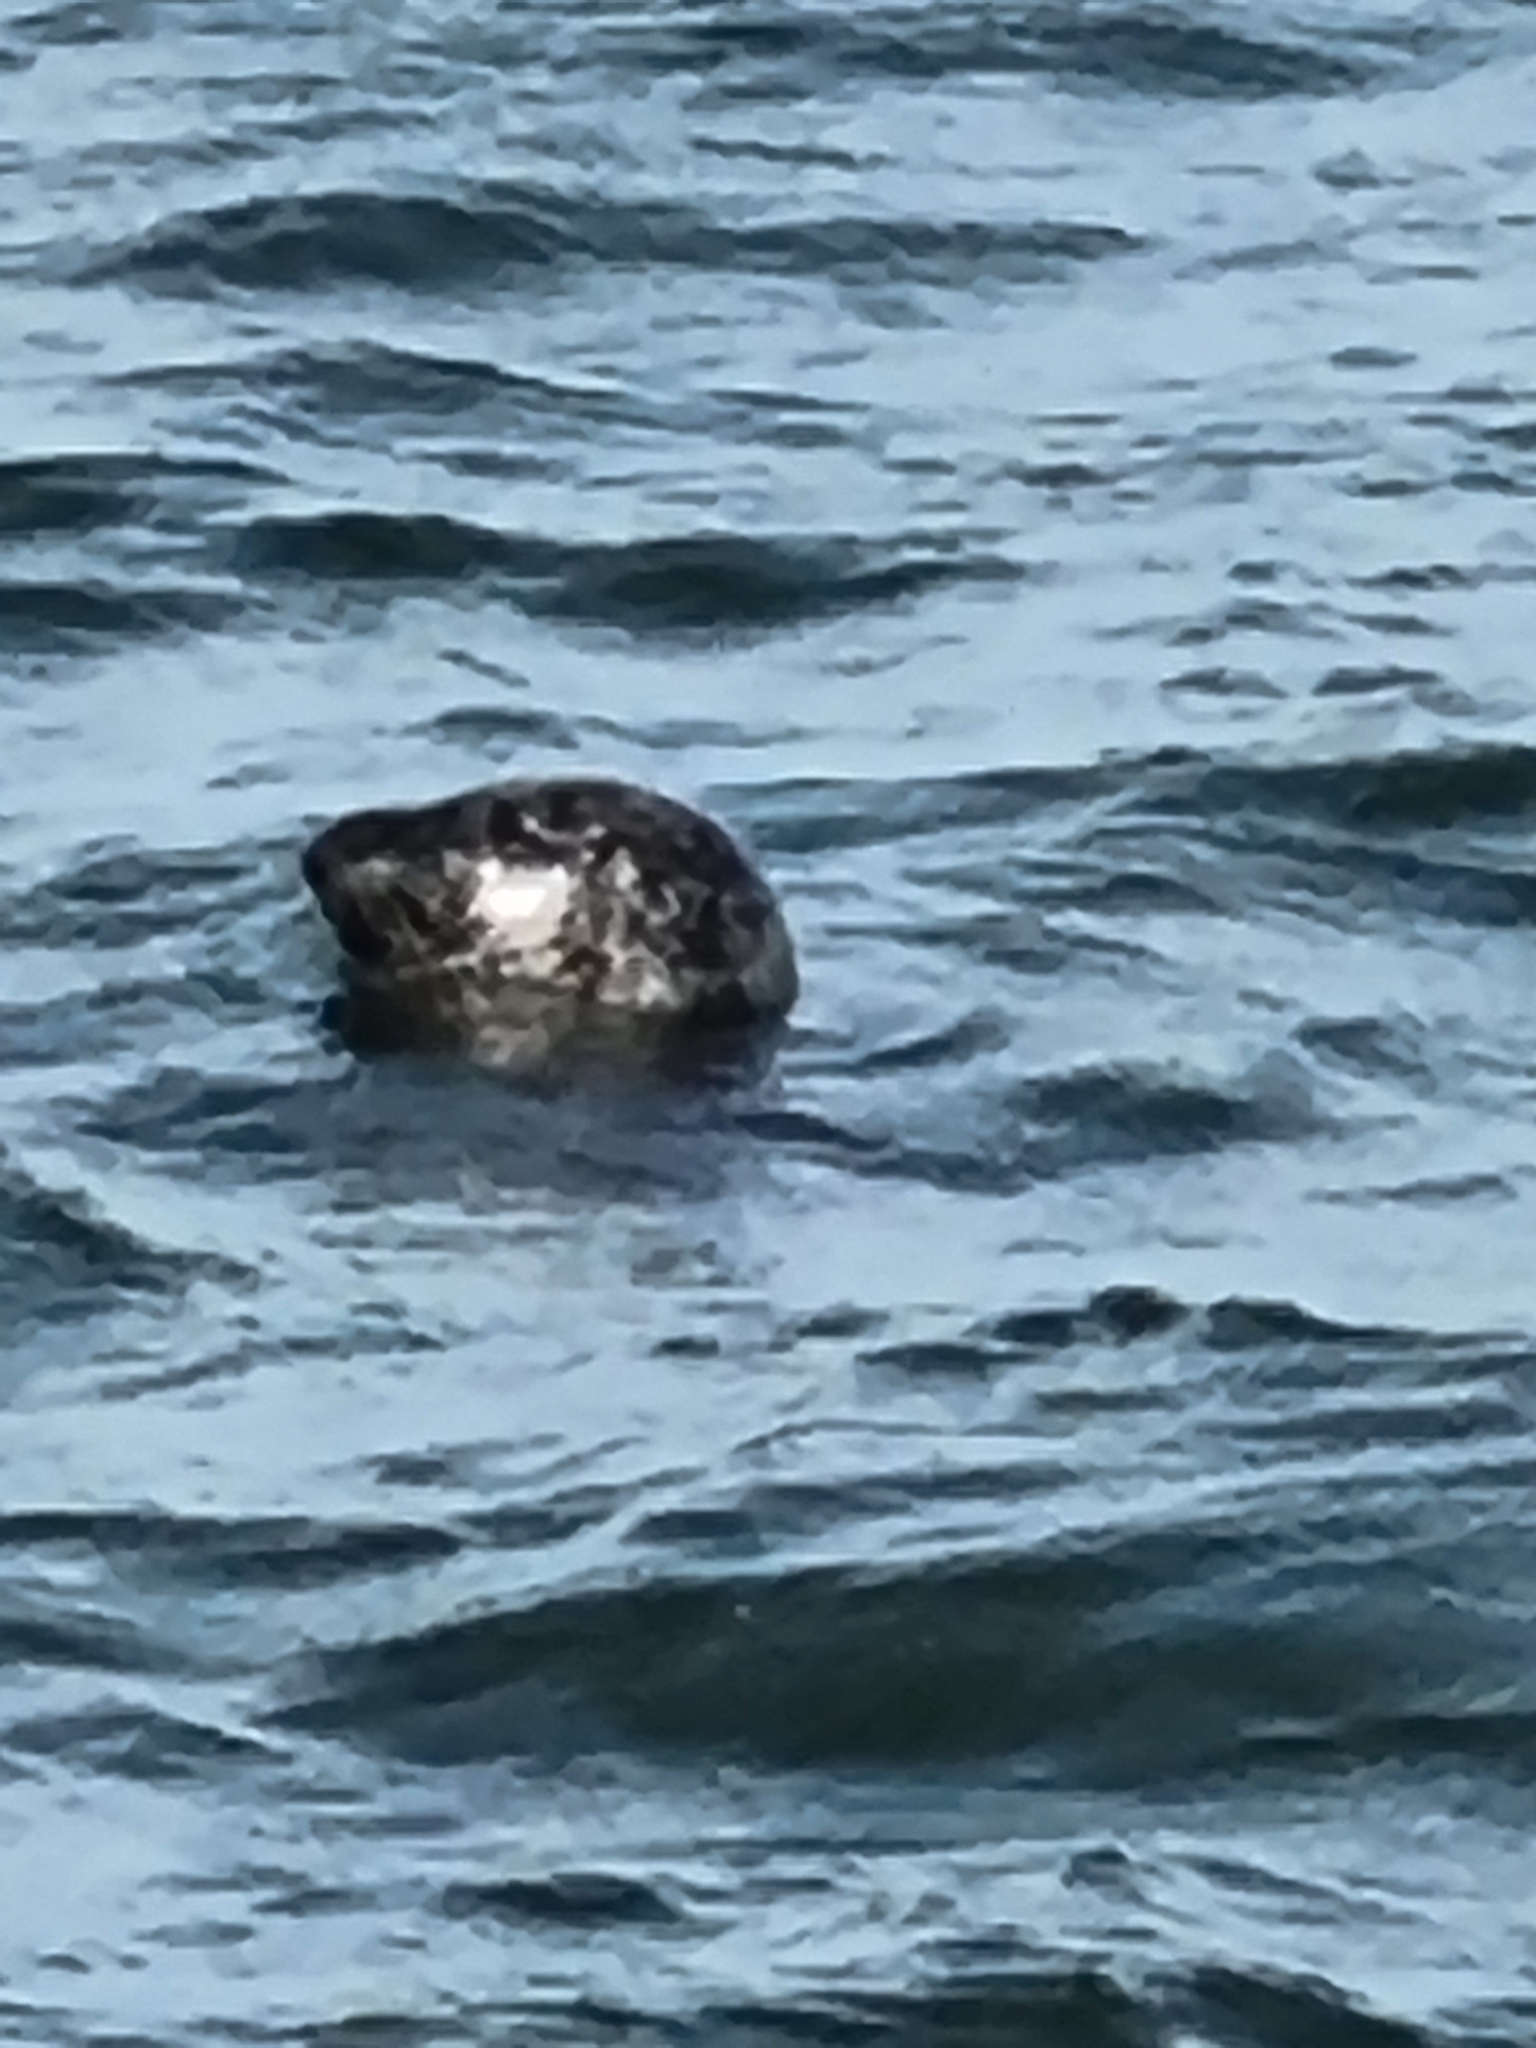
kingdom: Animalia
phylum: Chordata
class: Mammalia
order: Carnivora
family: Phocidae
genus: Phoca
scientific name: Phoca vitulina
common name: Harbor seal
